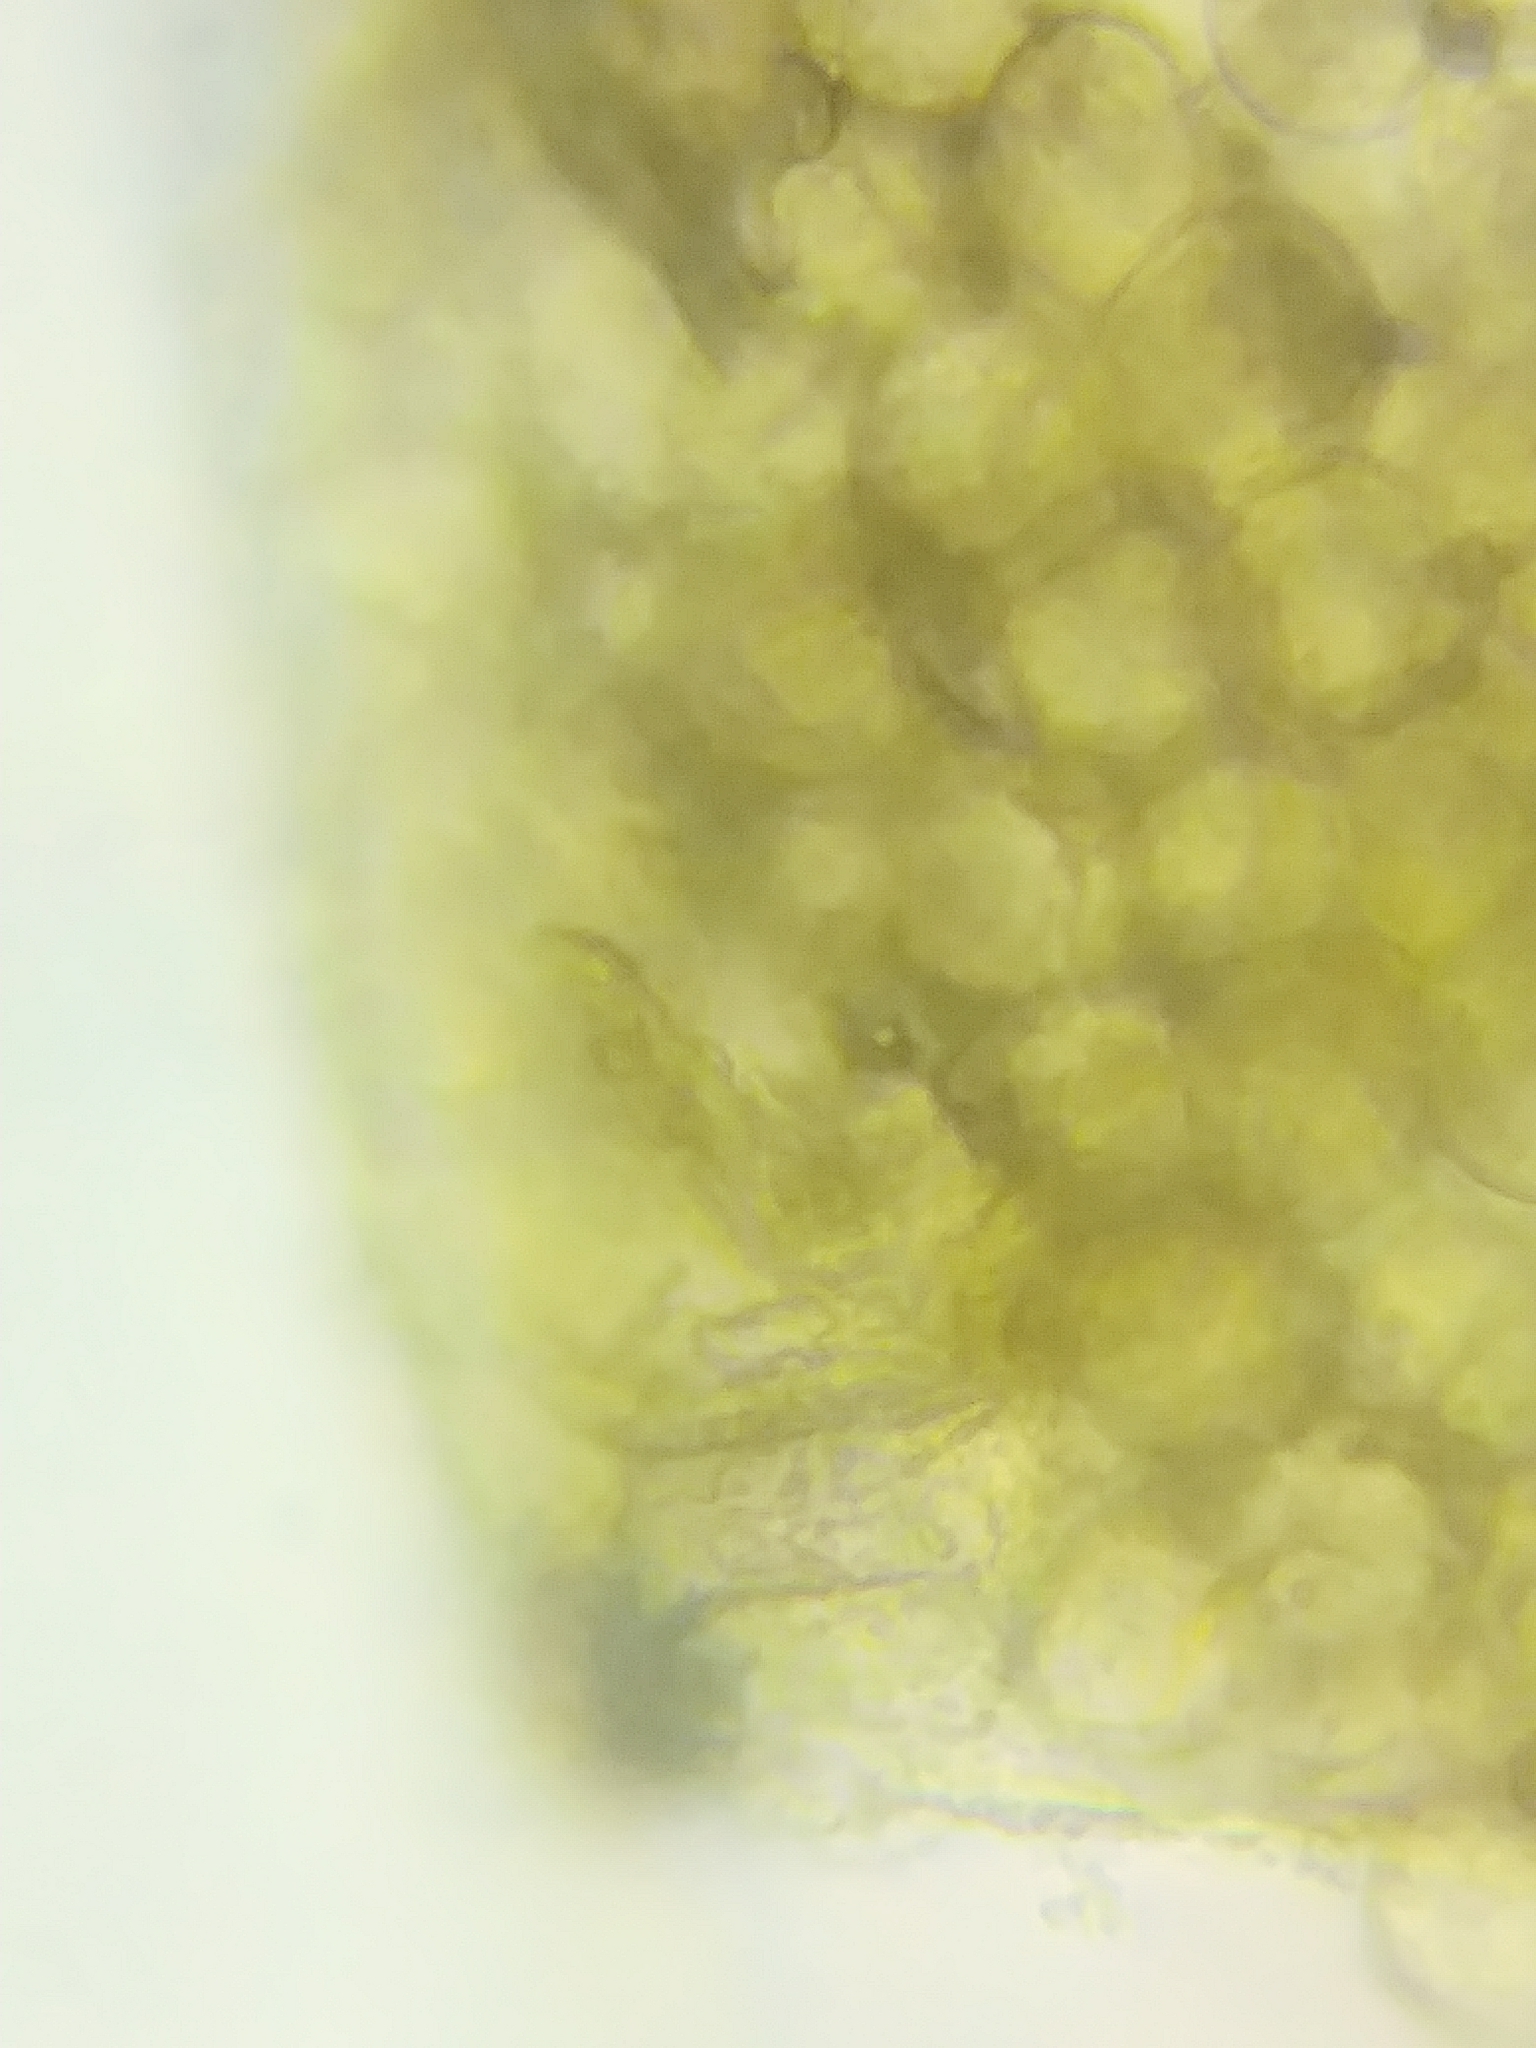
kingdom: Protozoa
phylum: Mycetozoa
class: Myxomycetes
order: Trichiales
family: Dictydiaethaliaceae
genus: Dictydiaethalium
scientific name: Dictydiaethalium plumbeum
